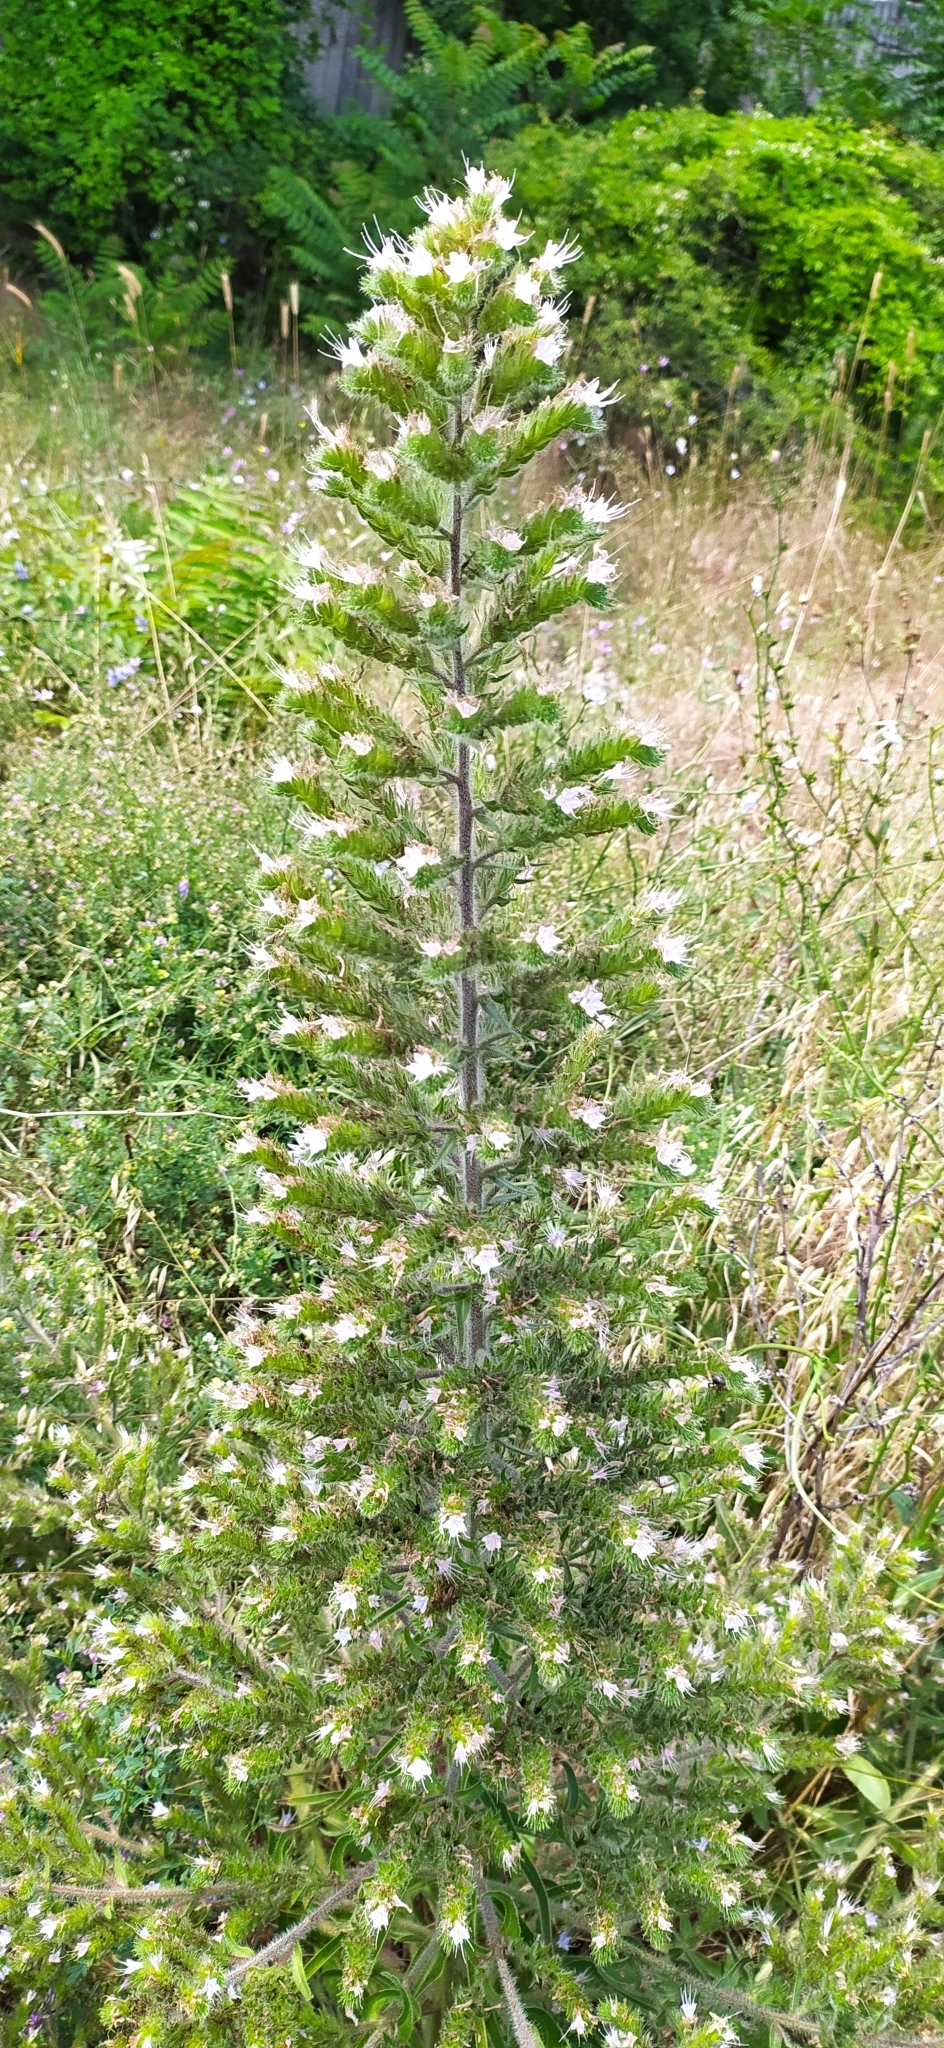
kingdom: Plantae
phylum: Tracheophyta
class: Magnoliopsida
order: Boraginales
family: Boraginaceae
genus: Echium
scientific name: Echium italicum
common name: Italian viper's bugloss
